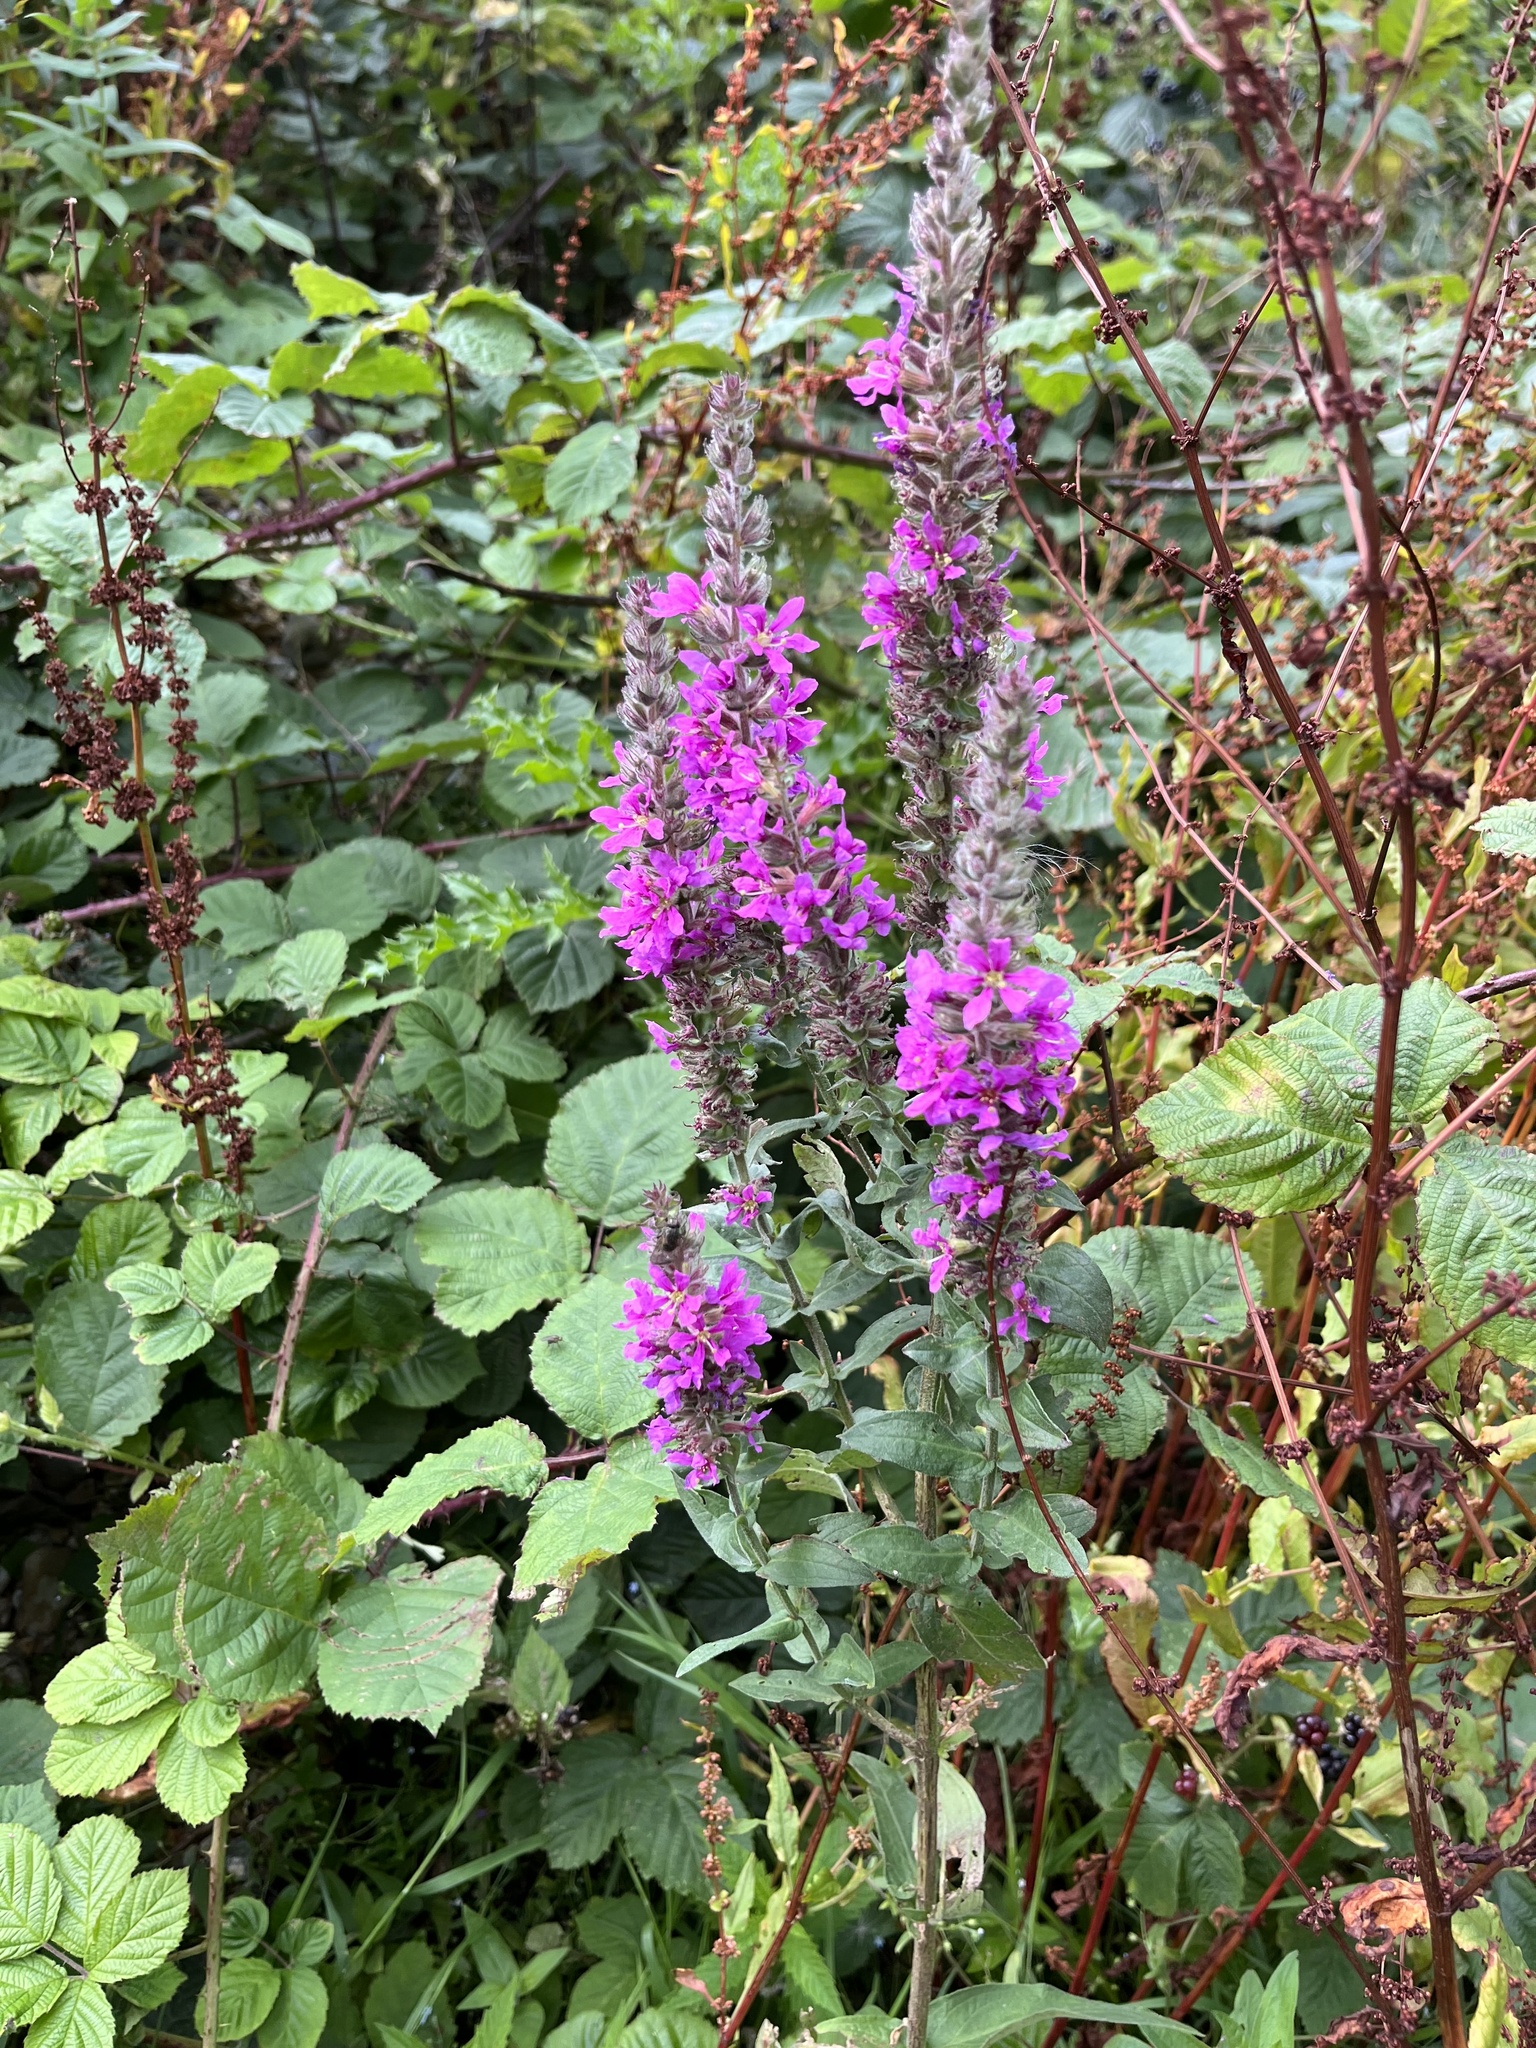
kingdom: Plantae
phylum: Tracheophyta
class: Magnoliopsida
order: Myrtales
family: Lythraceae
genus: Lythrum
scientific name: Lythrum salicaria
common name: Purple loosestrife
